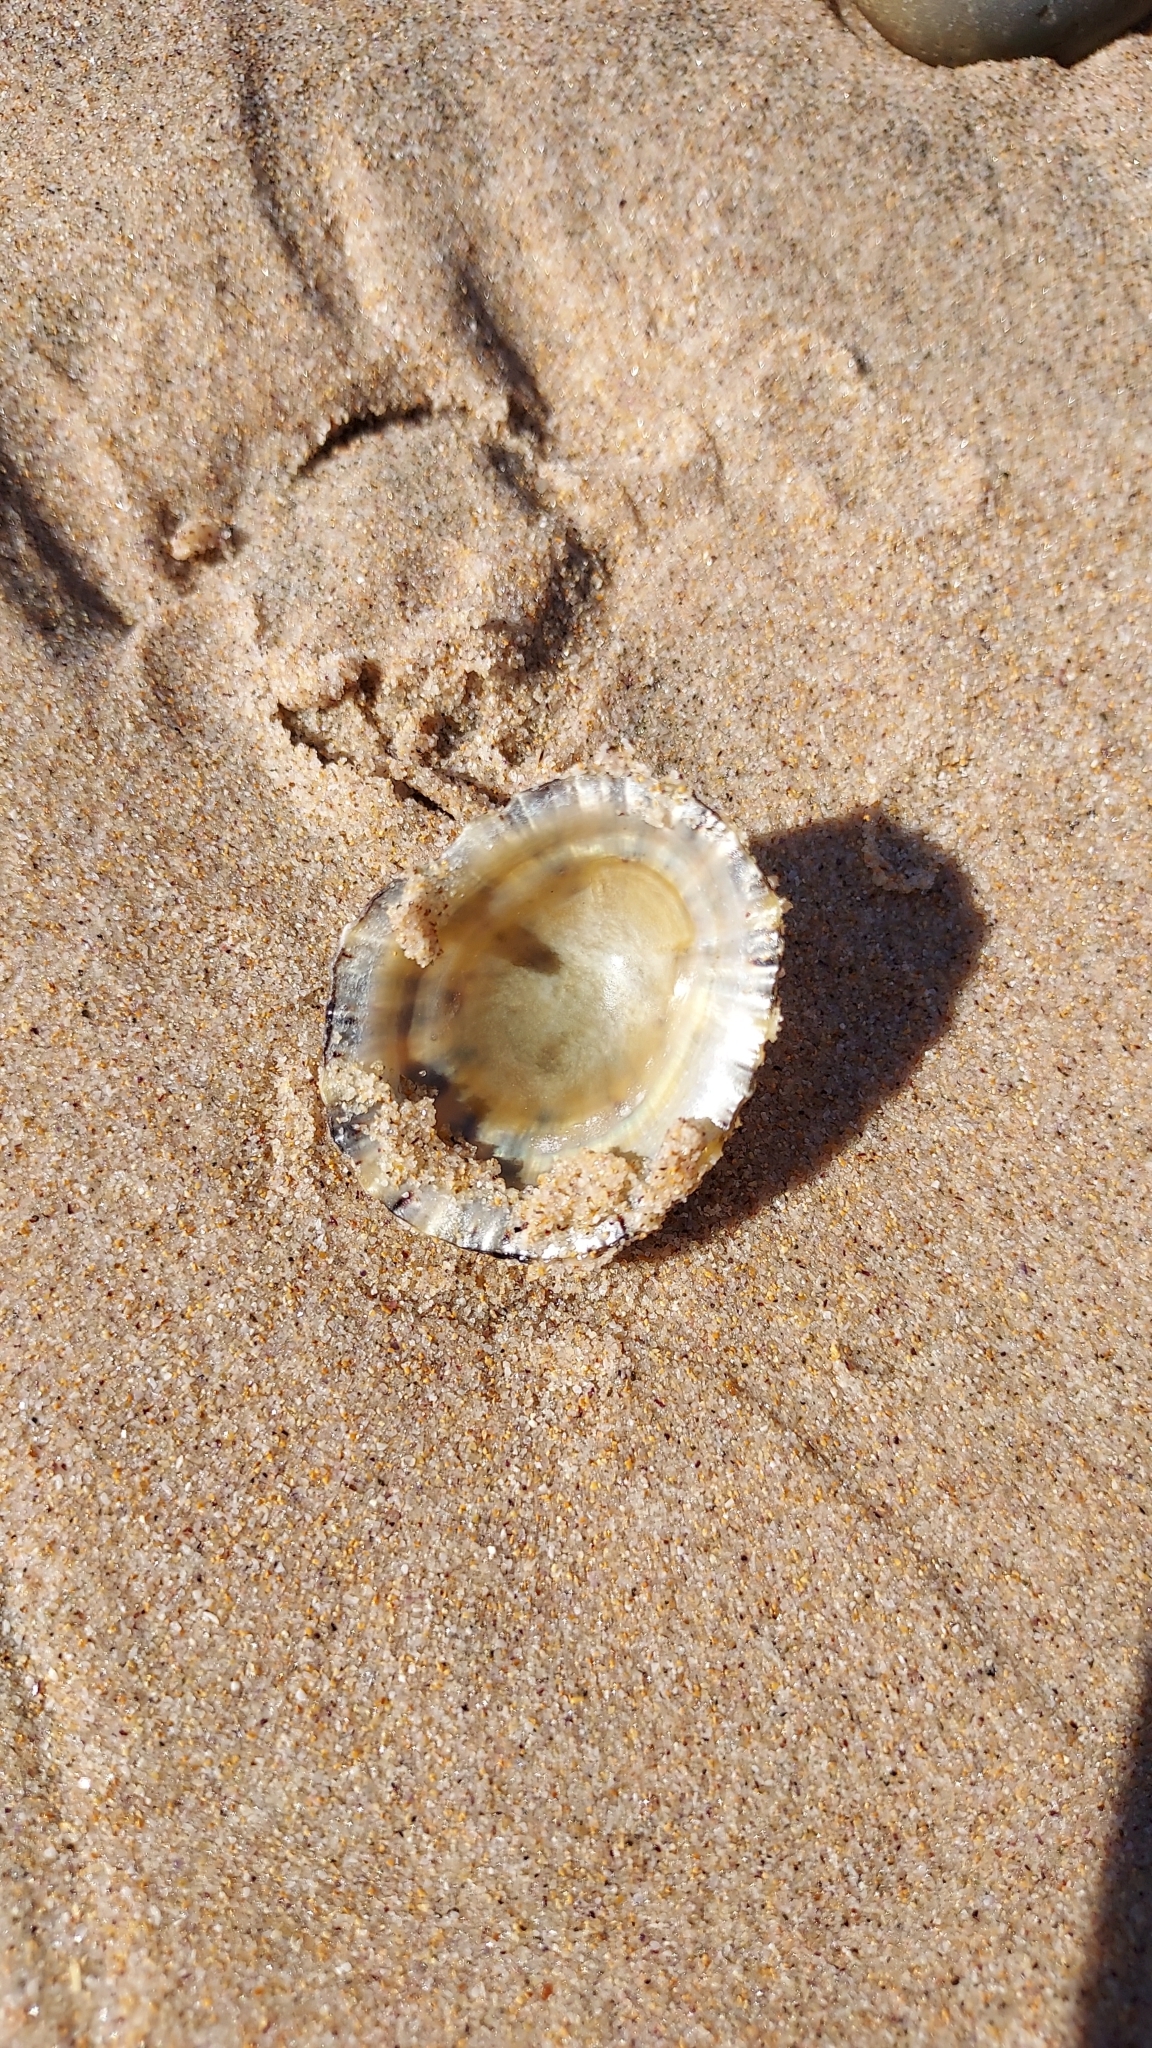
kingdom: Animalia
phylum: Mollusca
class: Gastropoda
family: Nacellidae
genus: Cellana
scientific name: Cellana tramoserica
